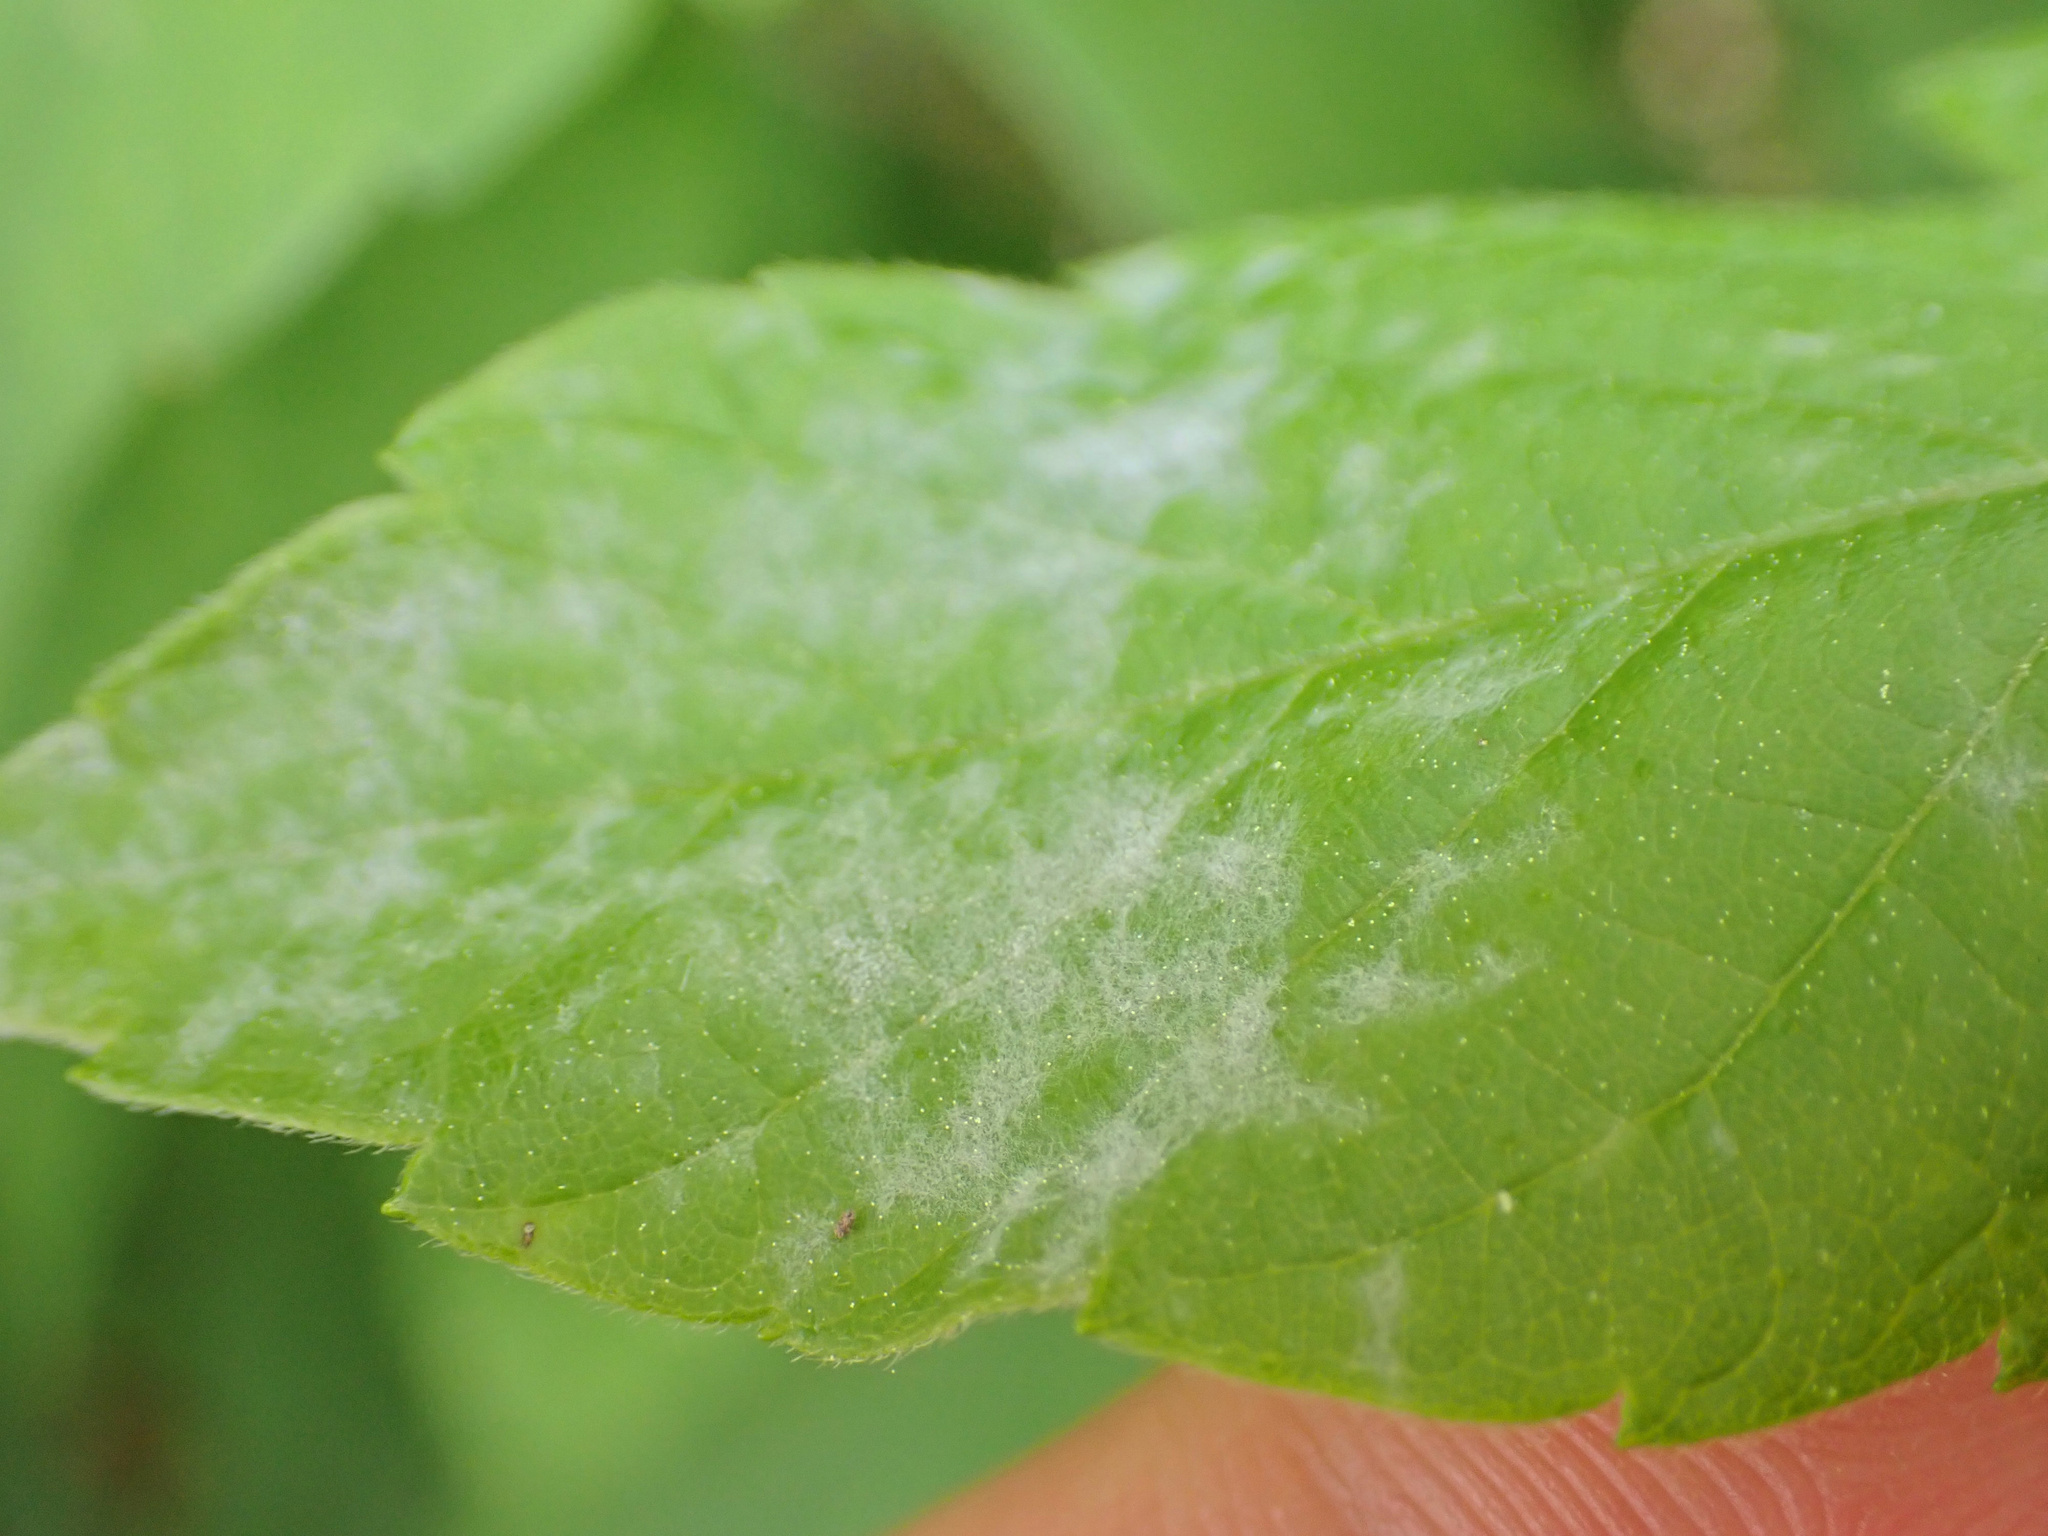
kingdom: Fungi
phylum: Ascomycota
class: Leotiomycetes
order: Helotiales
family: Erysiphaceae
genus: Takamatsuella
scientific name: Takamatsuella circinata
